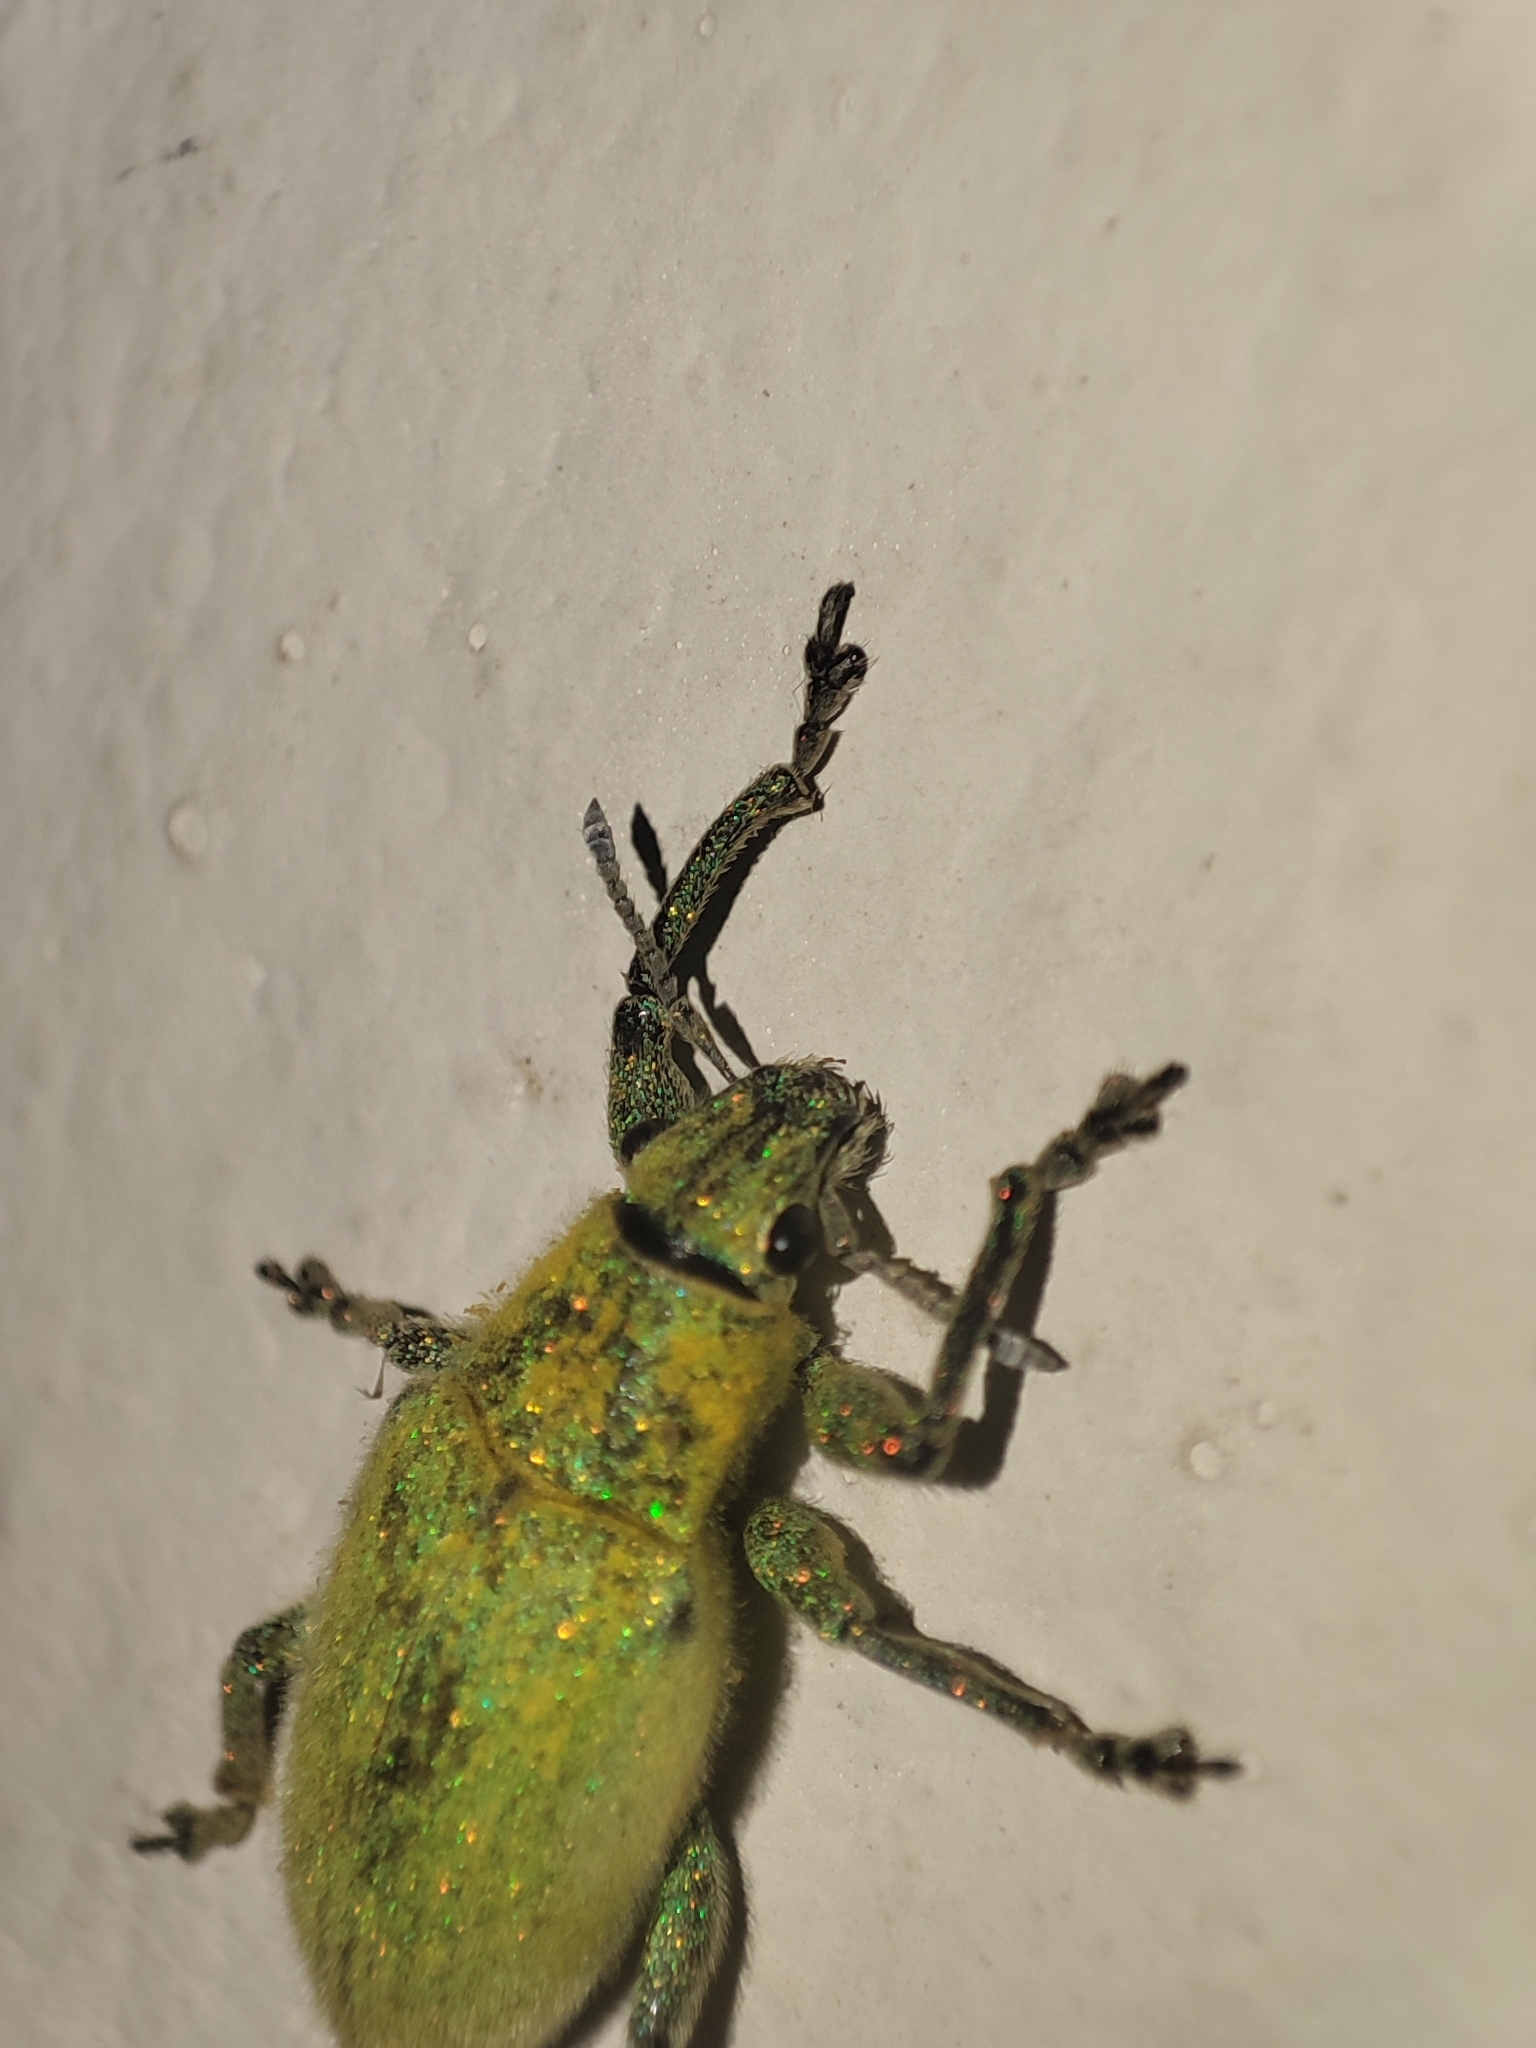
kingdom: Animalia
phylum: Arthropoda
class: Insecta
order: Coleoptera
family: Curculionidae
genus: Hypomeces
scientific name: Hypomeces pulviger
